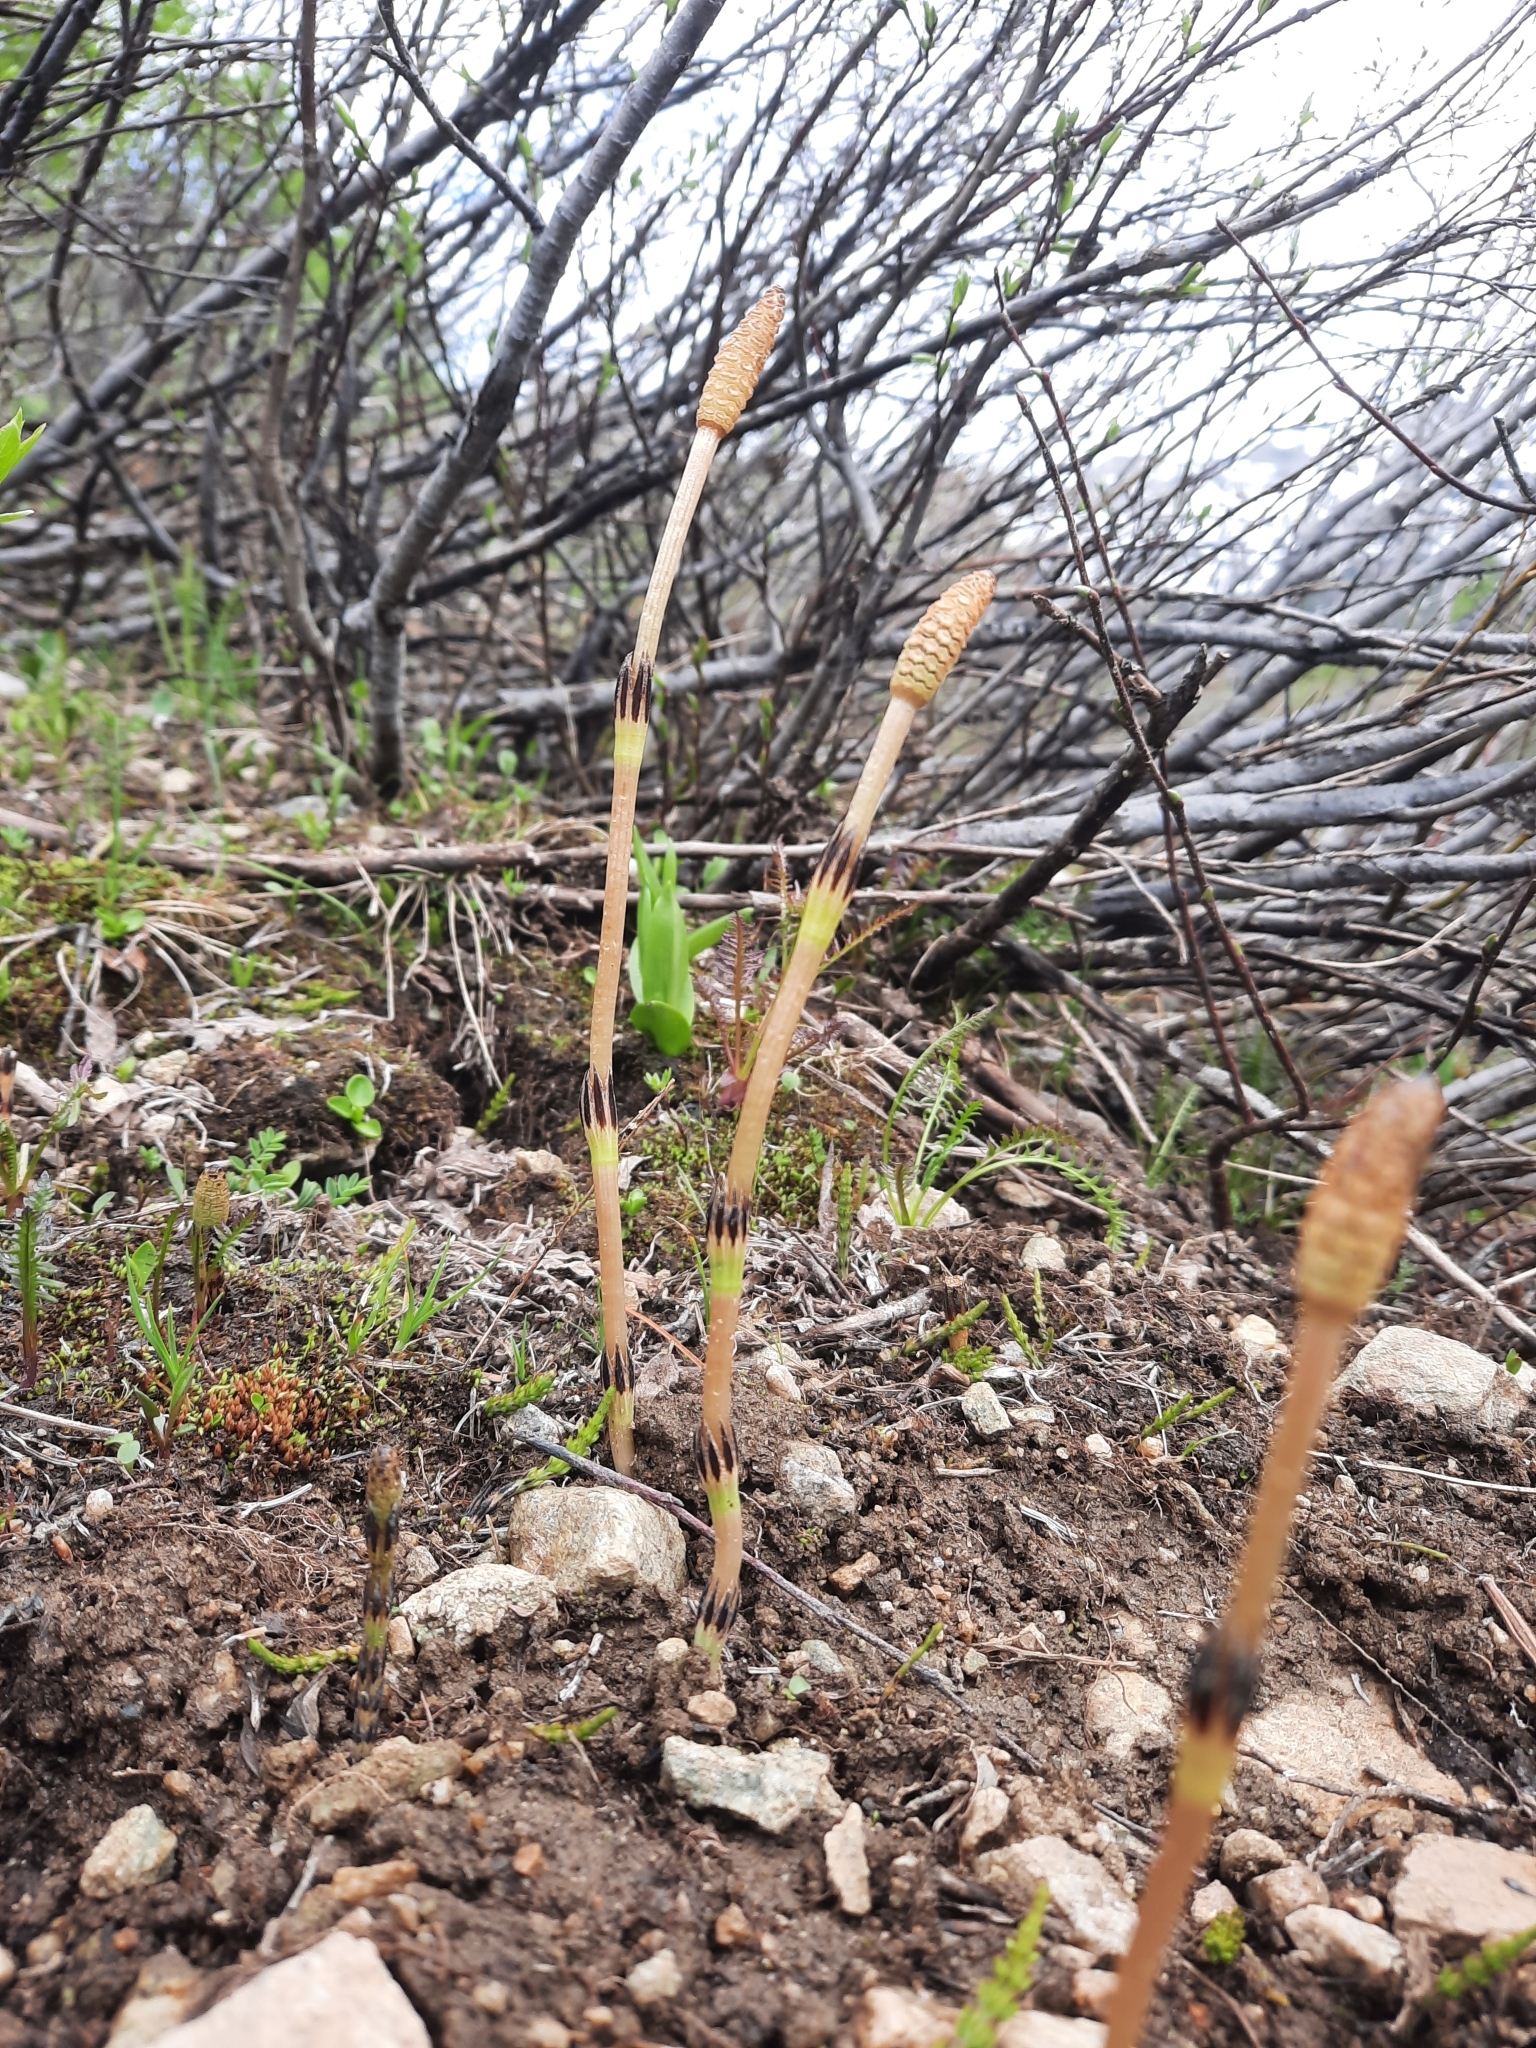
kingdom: Plantae
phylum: Tracheophyta
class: Polypodiopsida
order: Equisetales
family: Equisetaceae
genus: Equisetum
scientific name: Equisetum arvense
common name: Field horsetail
